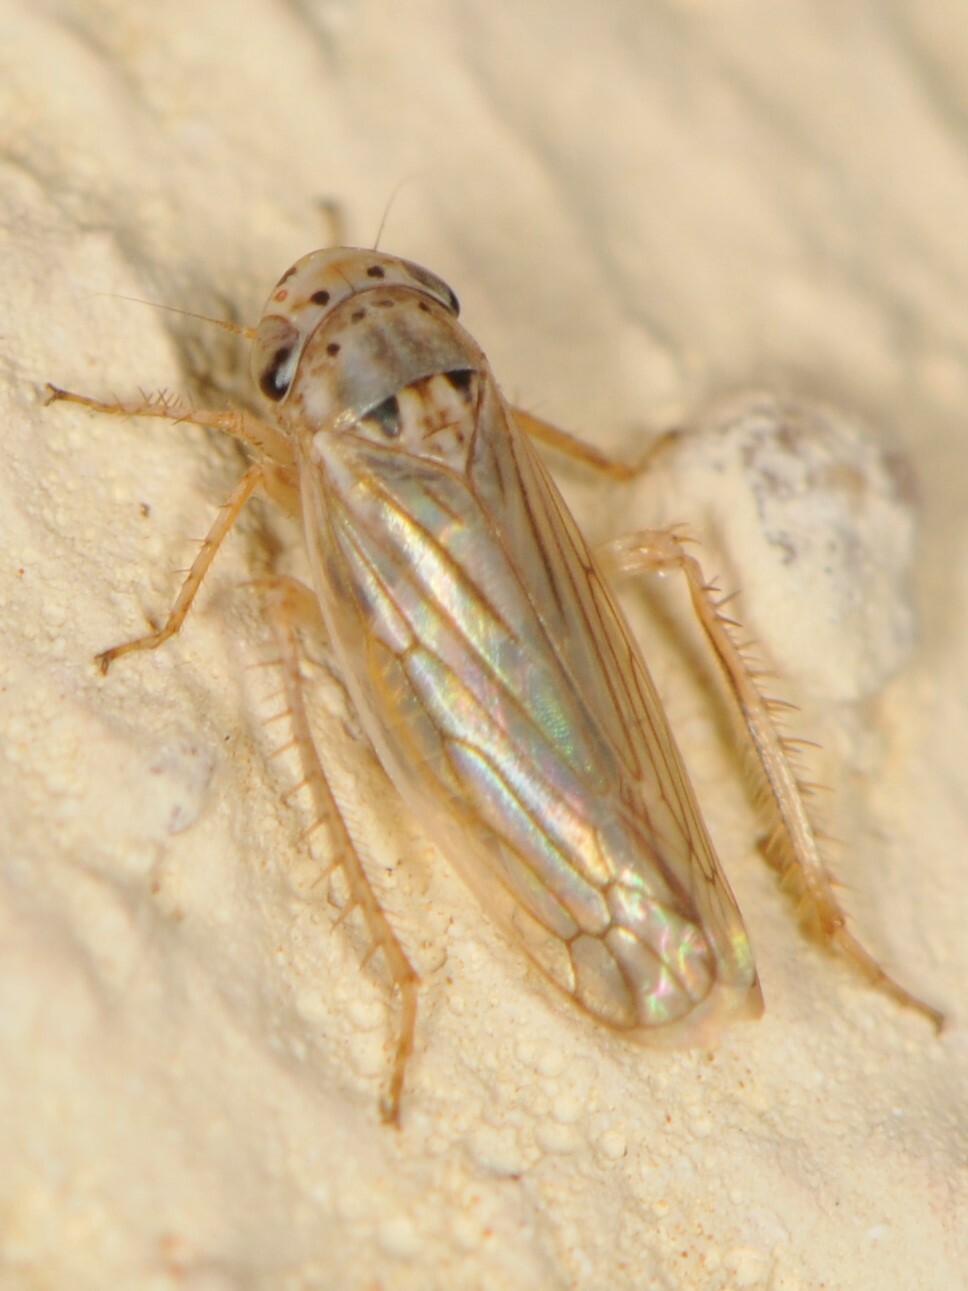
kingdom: Animalia
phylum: Arthropoda
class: Insecta
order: Hemiptera
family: Cicadellidae
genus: Exitianus
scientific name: Exitianus
